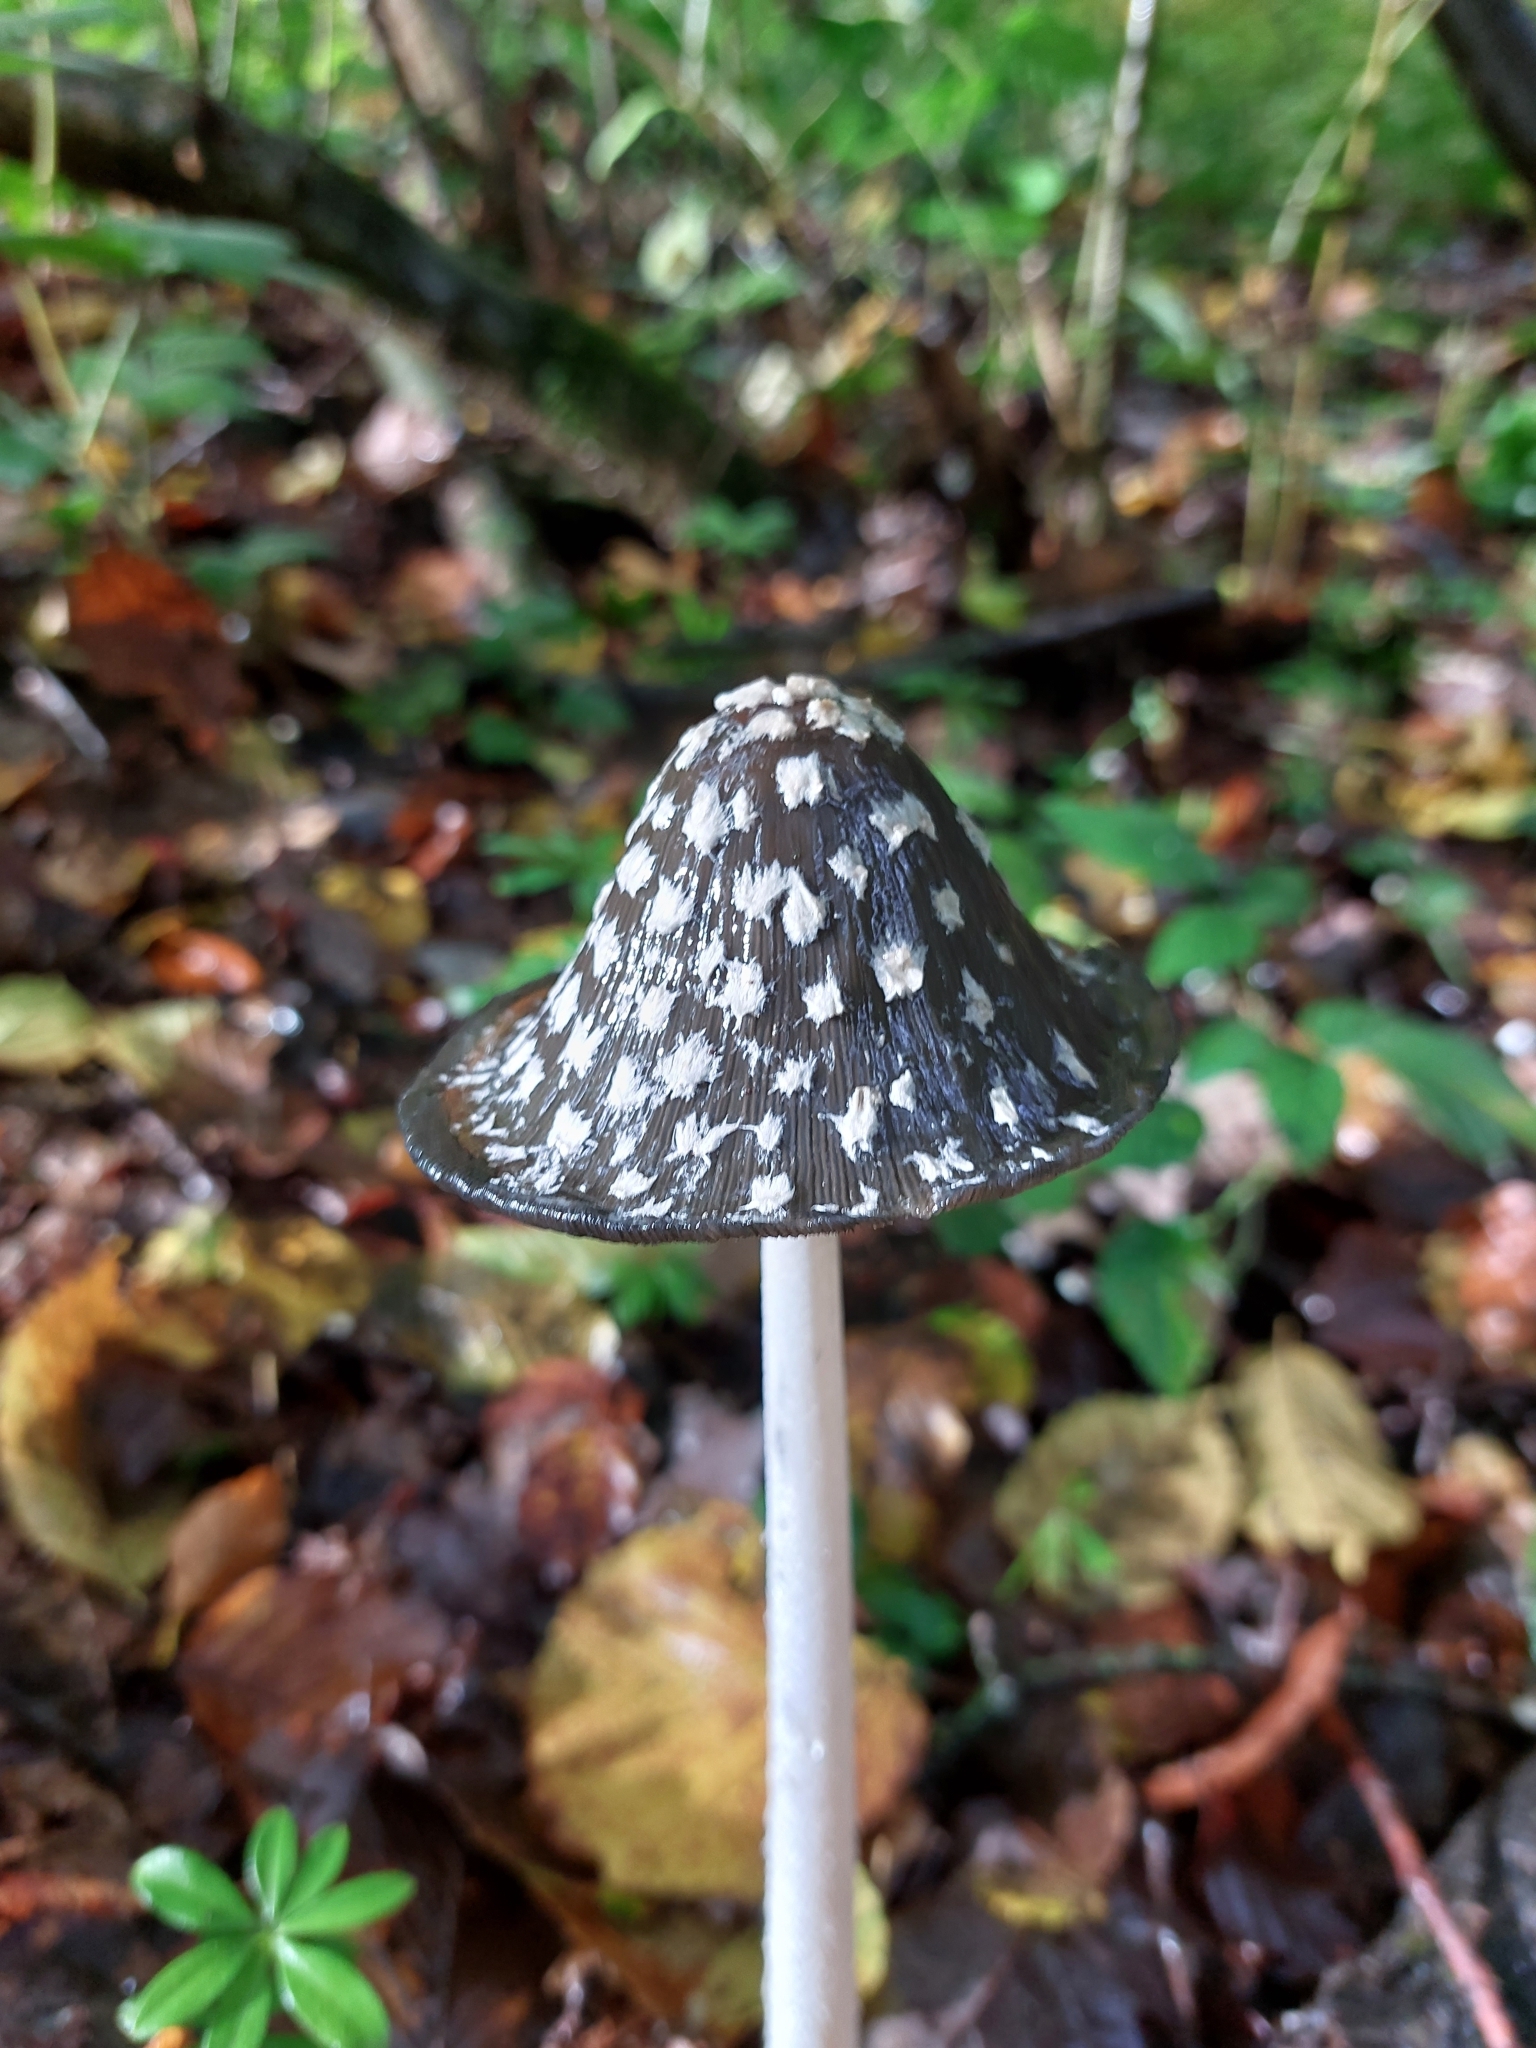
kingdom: Fungi
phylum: Basidiomycota
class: Agaricomycetes
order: Agaricales
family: Psathyrellaceae
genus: Coprinopsis
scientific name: Coprinopsis picacea
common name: Magpie inkcap
